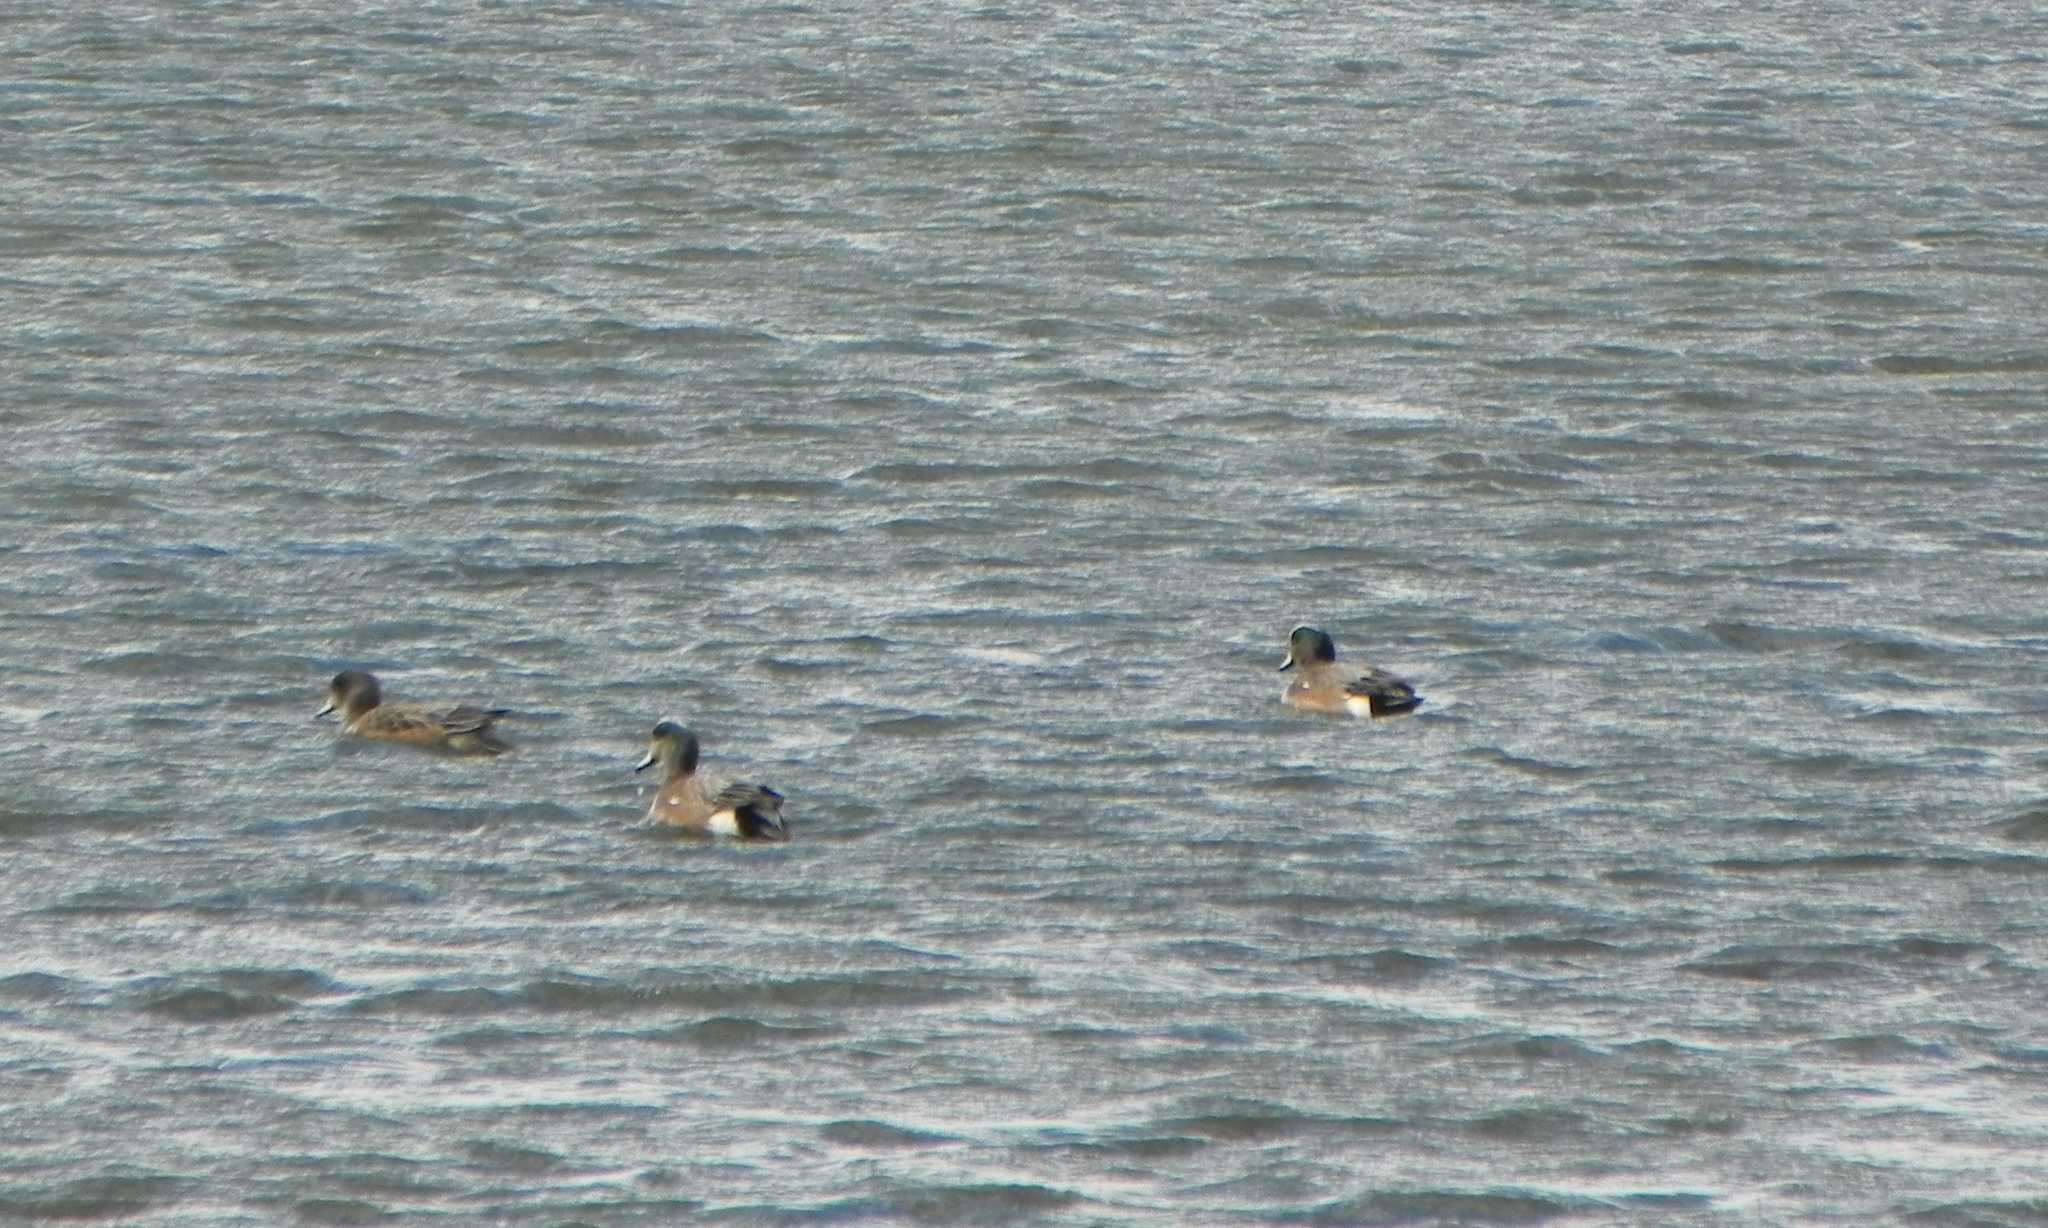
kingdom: Animalia
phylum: Chordata
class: Aves
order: Anseriformes
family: Anatidae
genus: Mareca
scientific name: Mareca americana
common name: American wigeon
